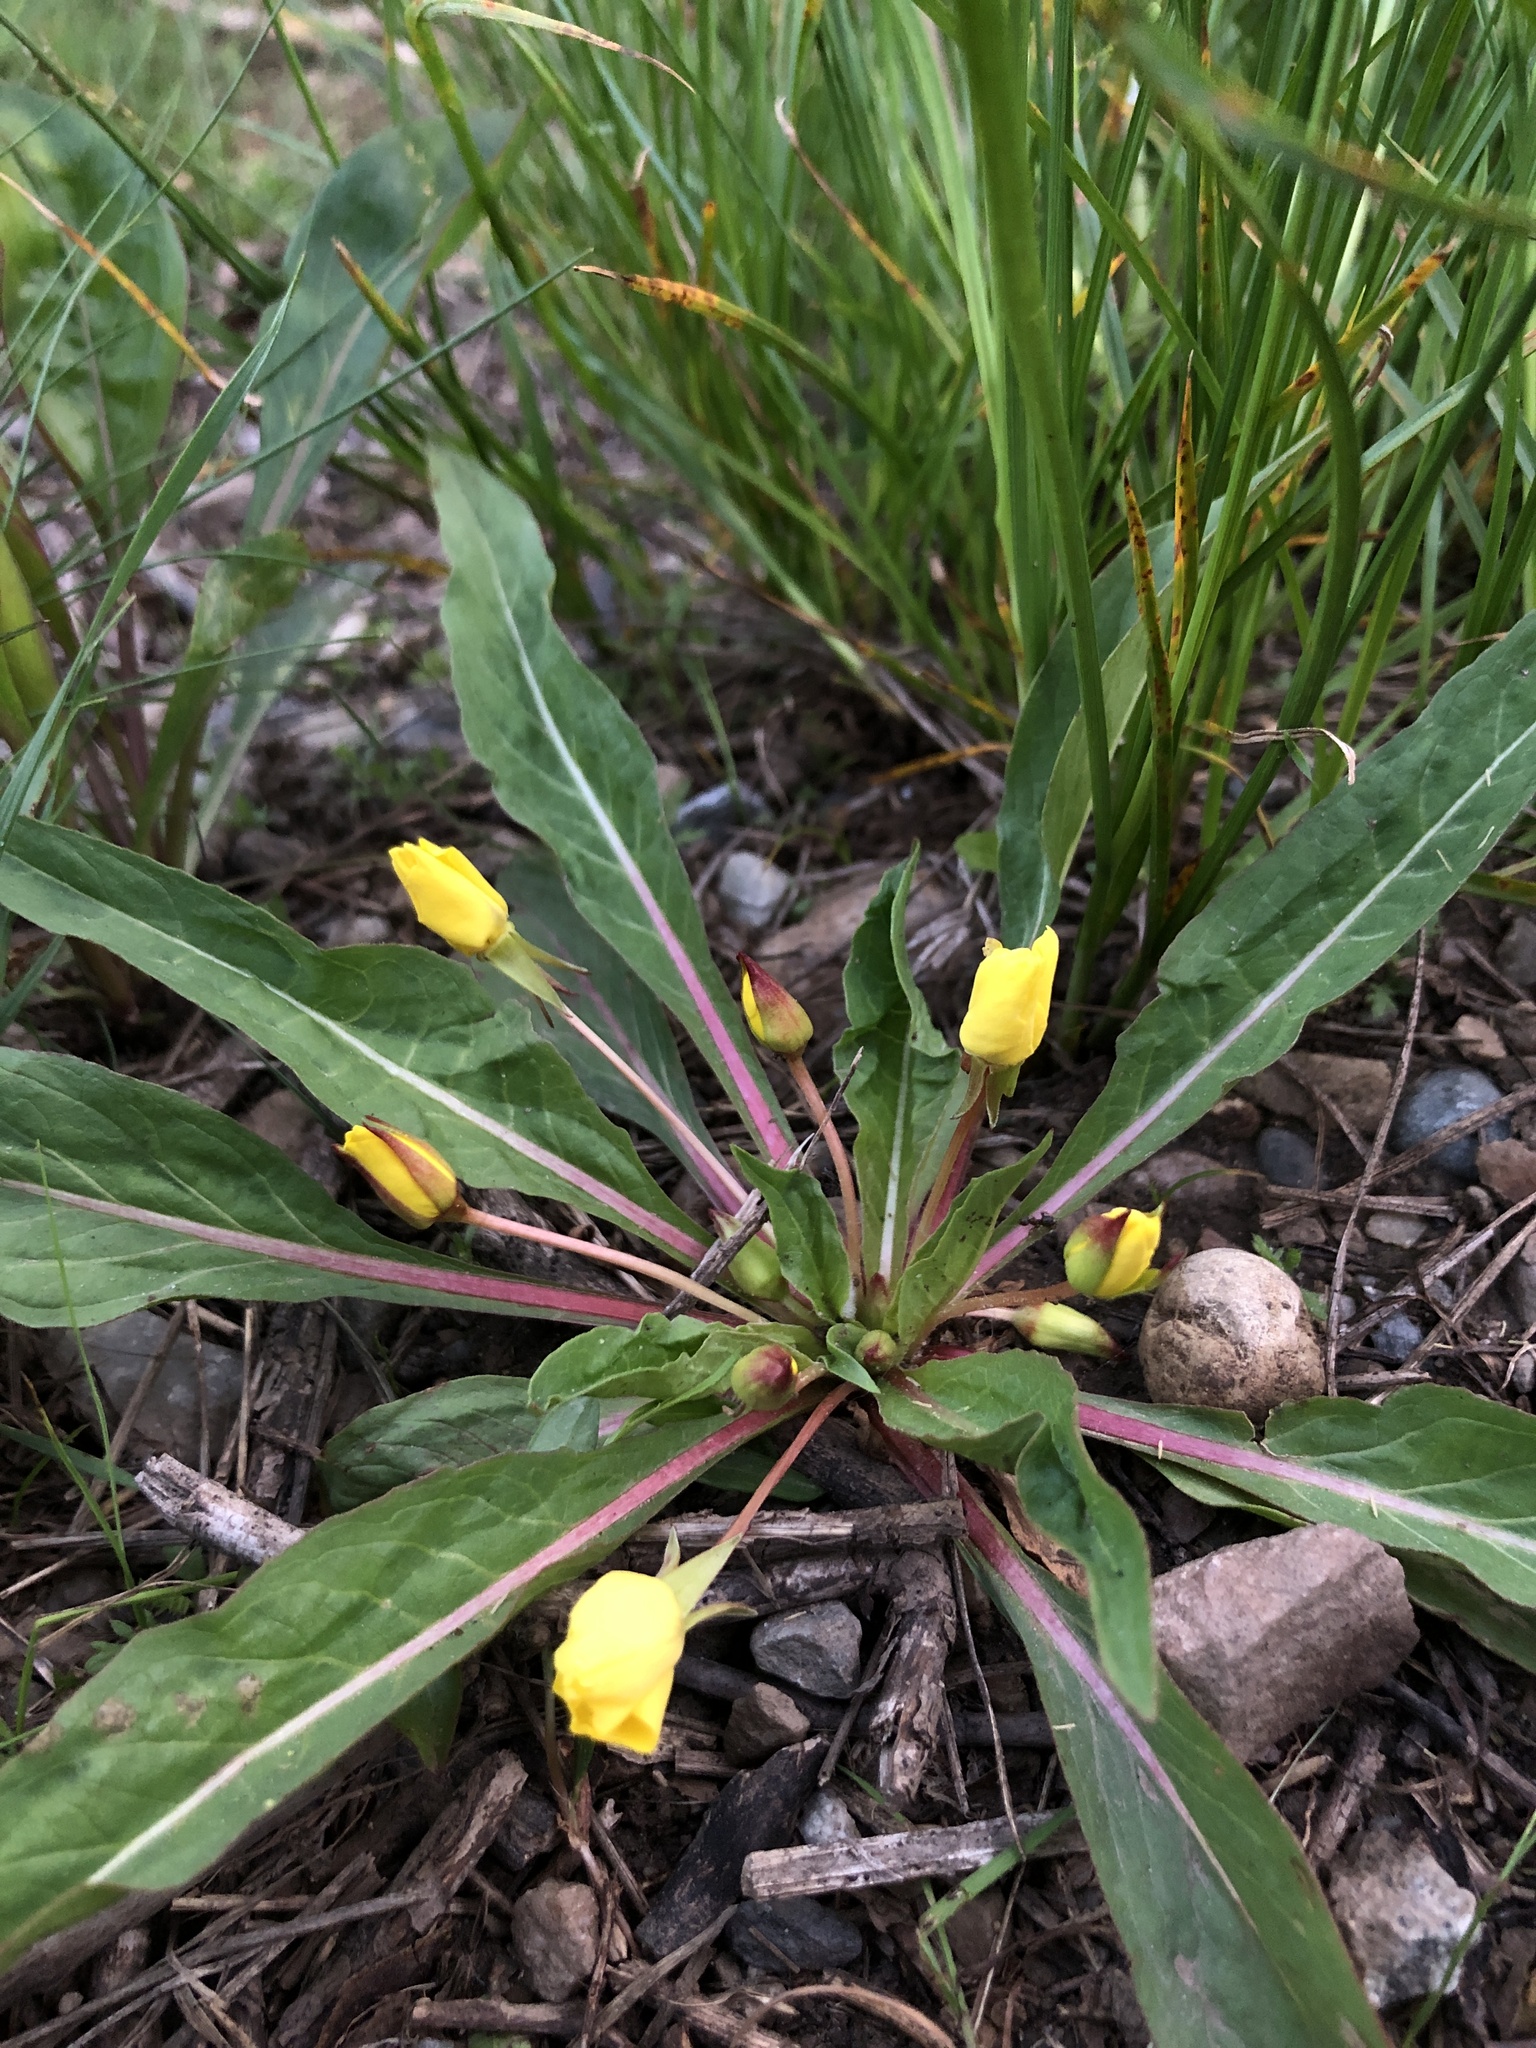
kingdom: Plantae
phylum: Tracheophyta
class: Magnoliopsida
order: Myrtales
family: Onagraceae
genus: Taraxia
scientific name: Taraxia subacaulis
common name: Diffuseflower evening primrose
